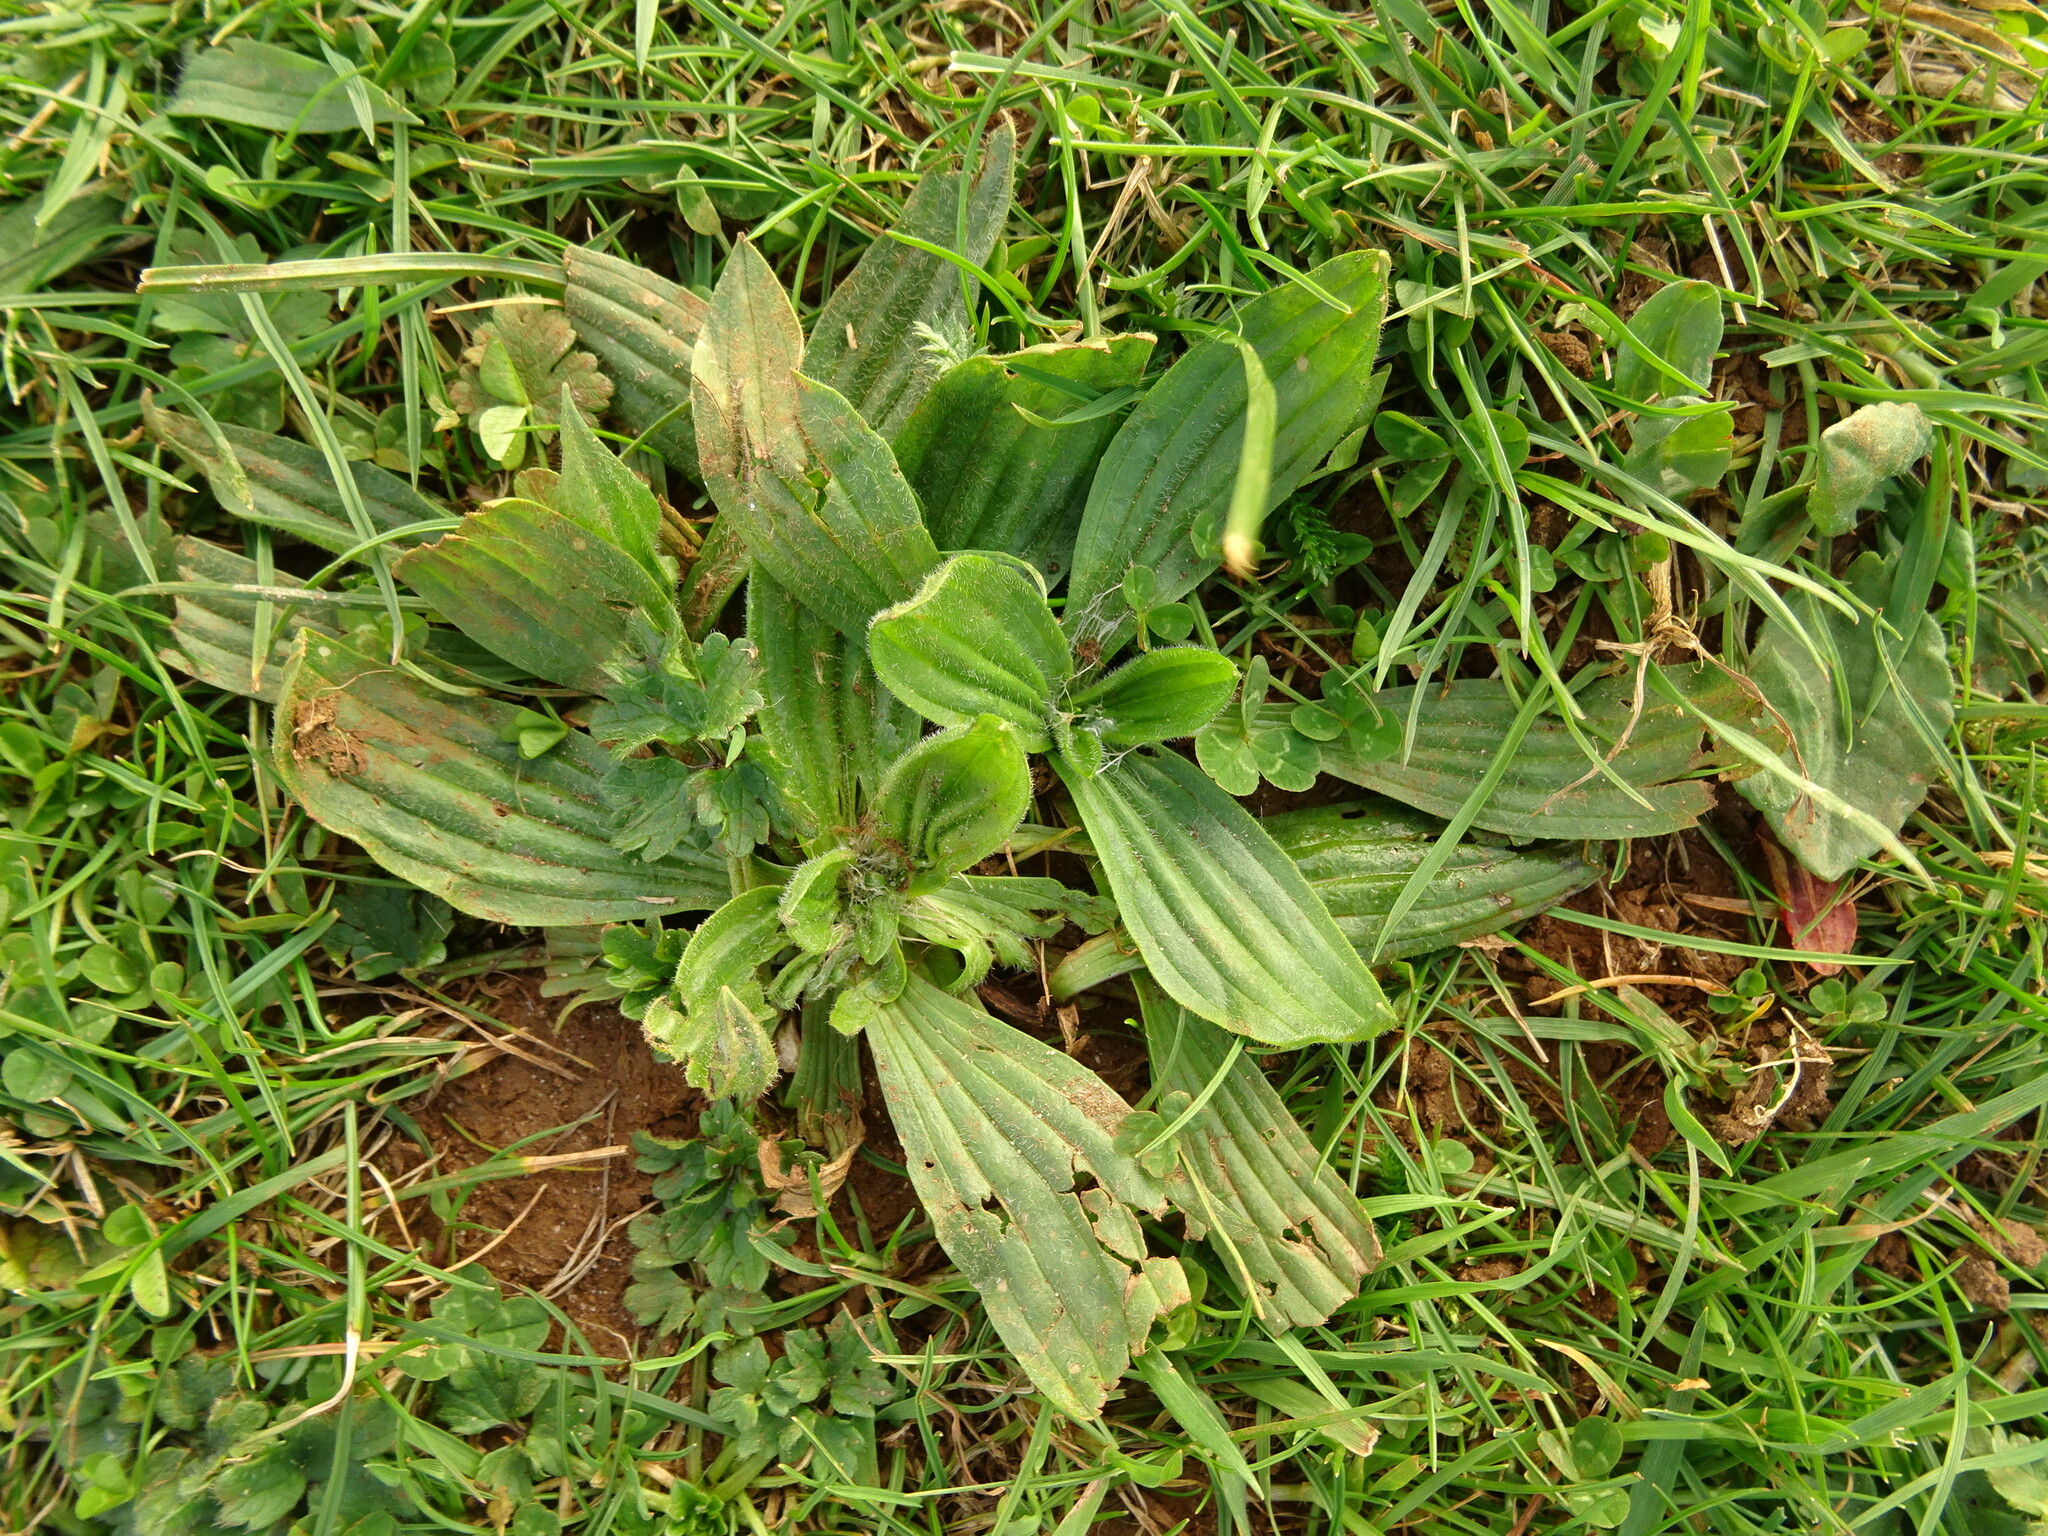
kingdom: Plantae
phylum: Tracheophyta
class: Magnoliopsida
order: Lamiales
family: Plantaginaceae
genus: Plantago
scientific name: Plantago lanceolata
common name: Ribwort plantain
